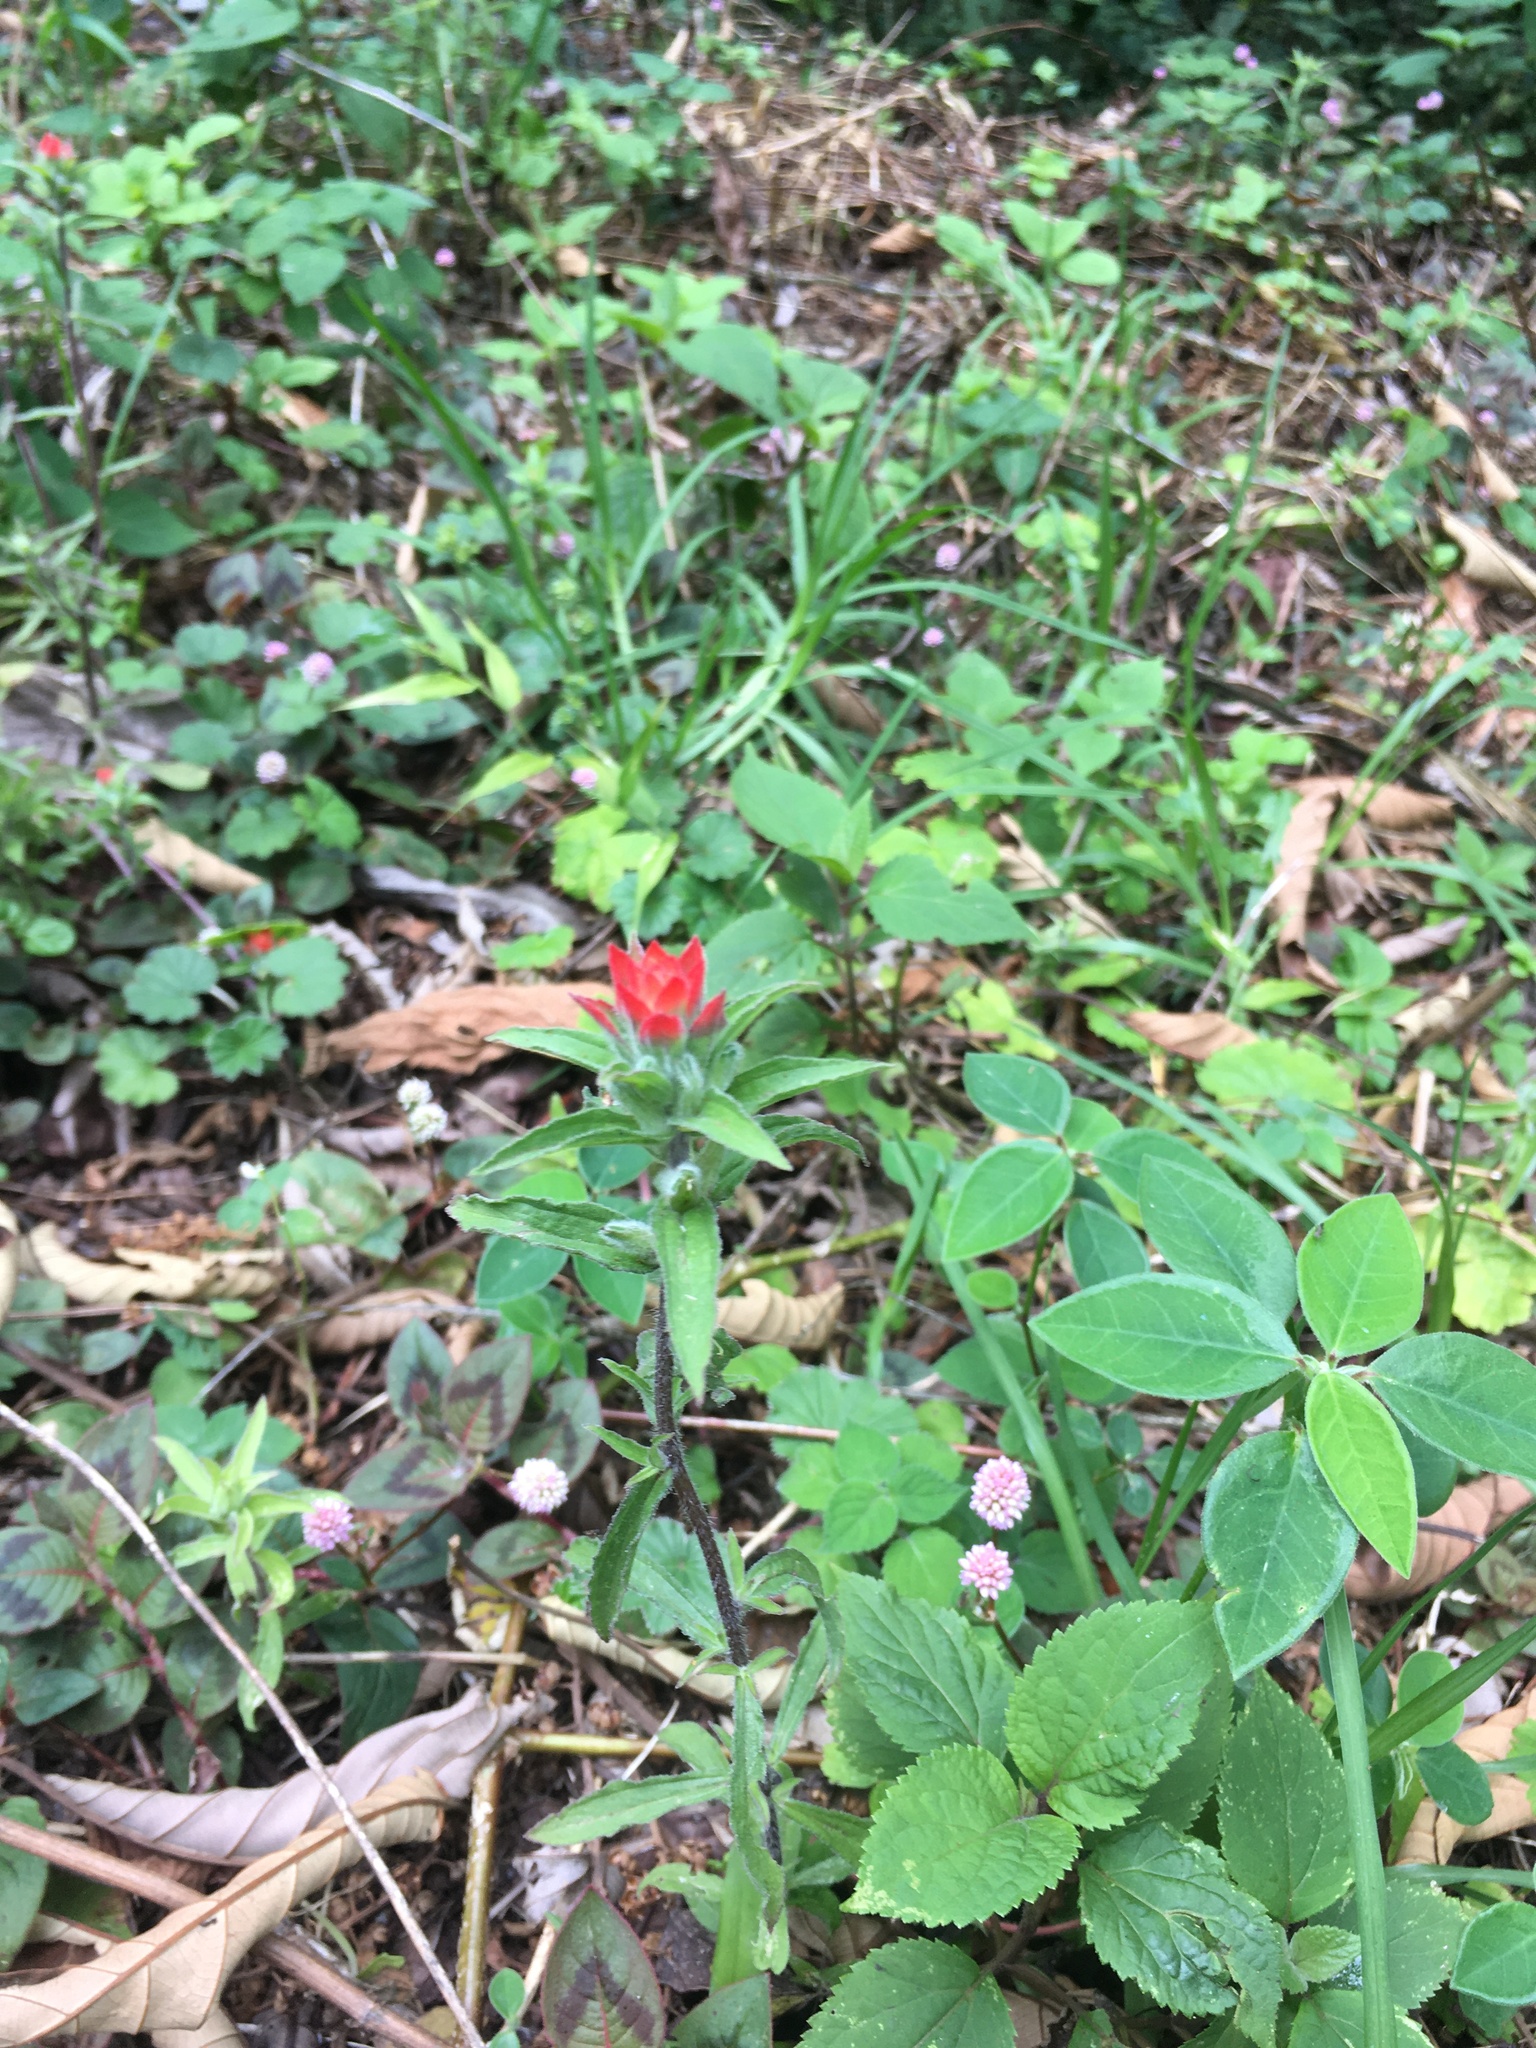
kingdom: Plantae
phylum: Tracheophyta
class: Magnoliopsida
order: Lamiales
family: Orobanchaceae
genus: Castilleja
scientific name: Castilleja arvensis
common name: Indian paintbrush
